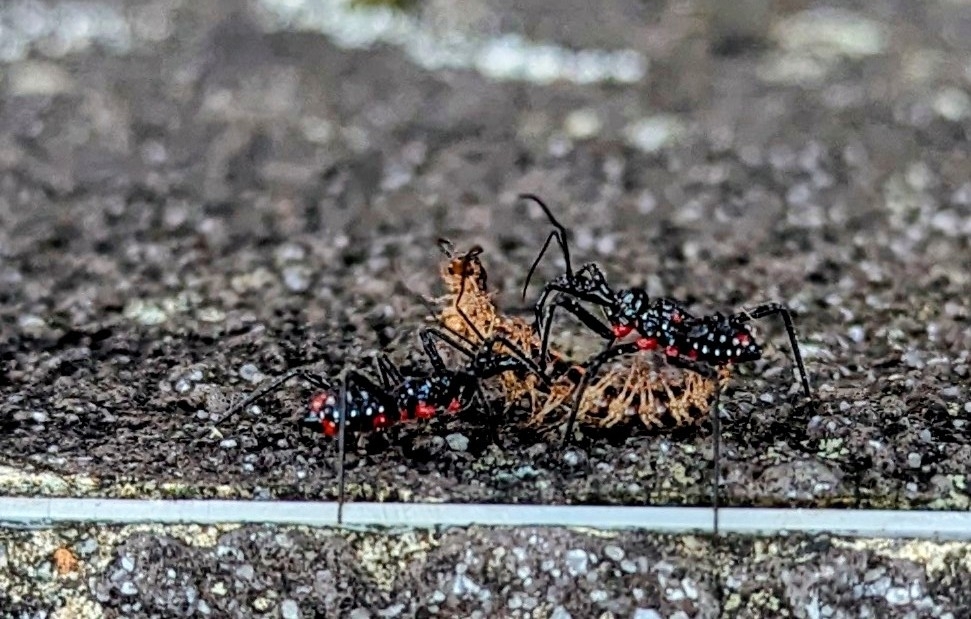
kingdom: Animalia
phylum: Arthropoda
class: Insecta
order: Hemiptera
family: Reduviidae
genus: Agriosphodrus
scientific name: Agriosphodrus dohrni
